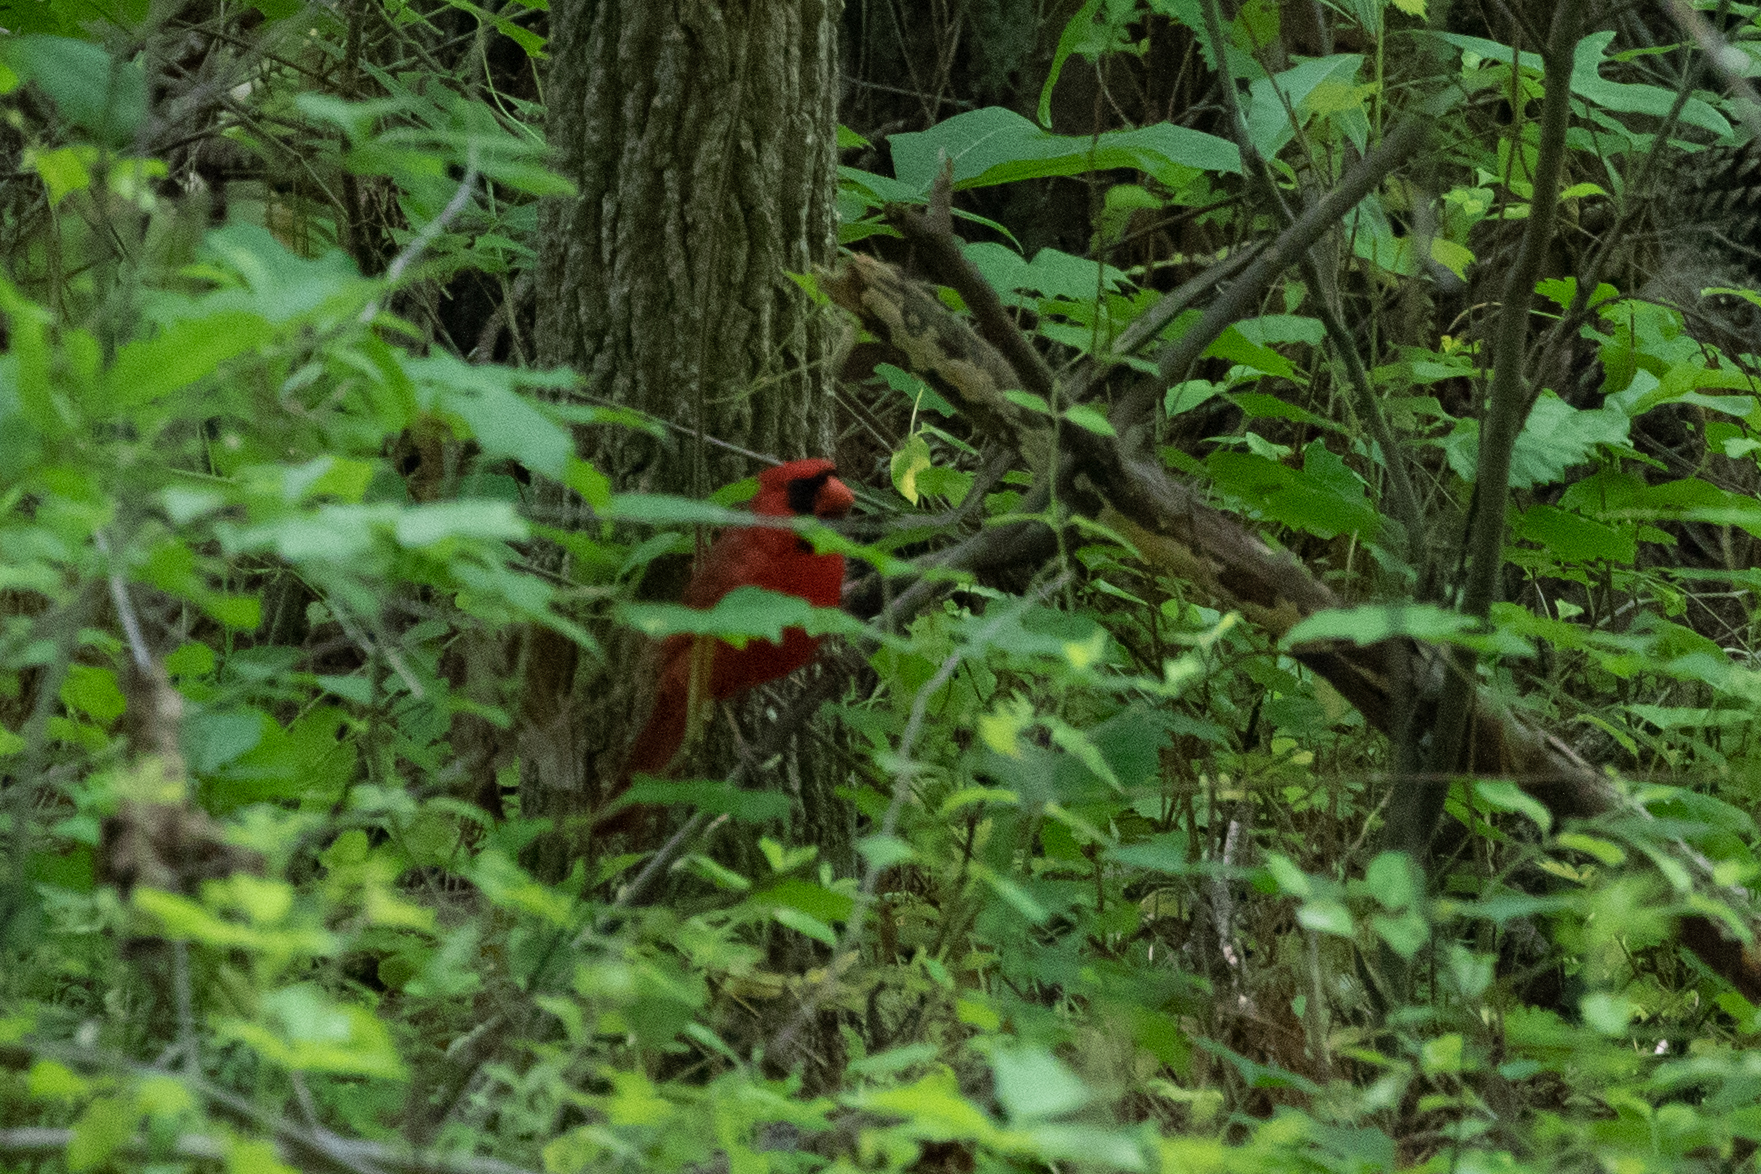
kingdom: Animalia
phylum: Chordata
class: Aves
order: Passeriformes
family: Cardinalidae
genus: Cardinalis
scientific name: Cardinalis cardinalis
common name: Northern cardinal
